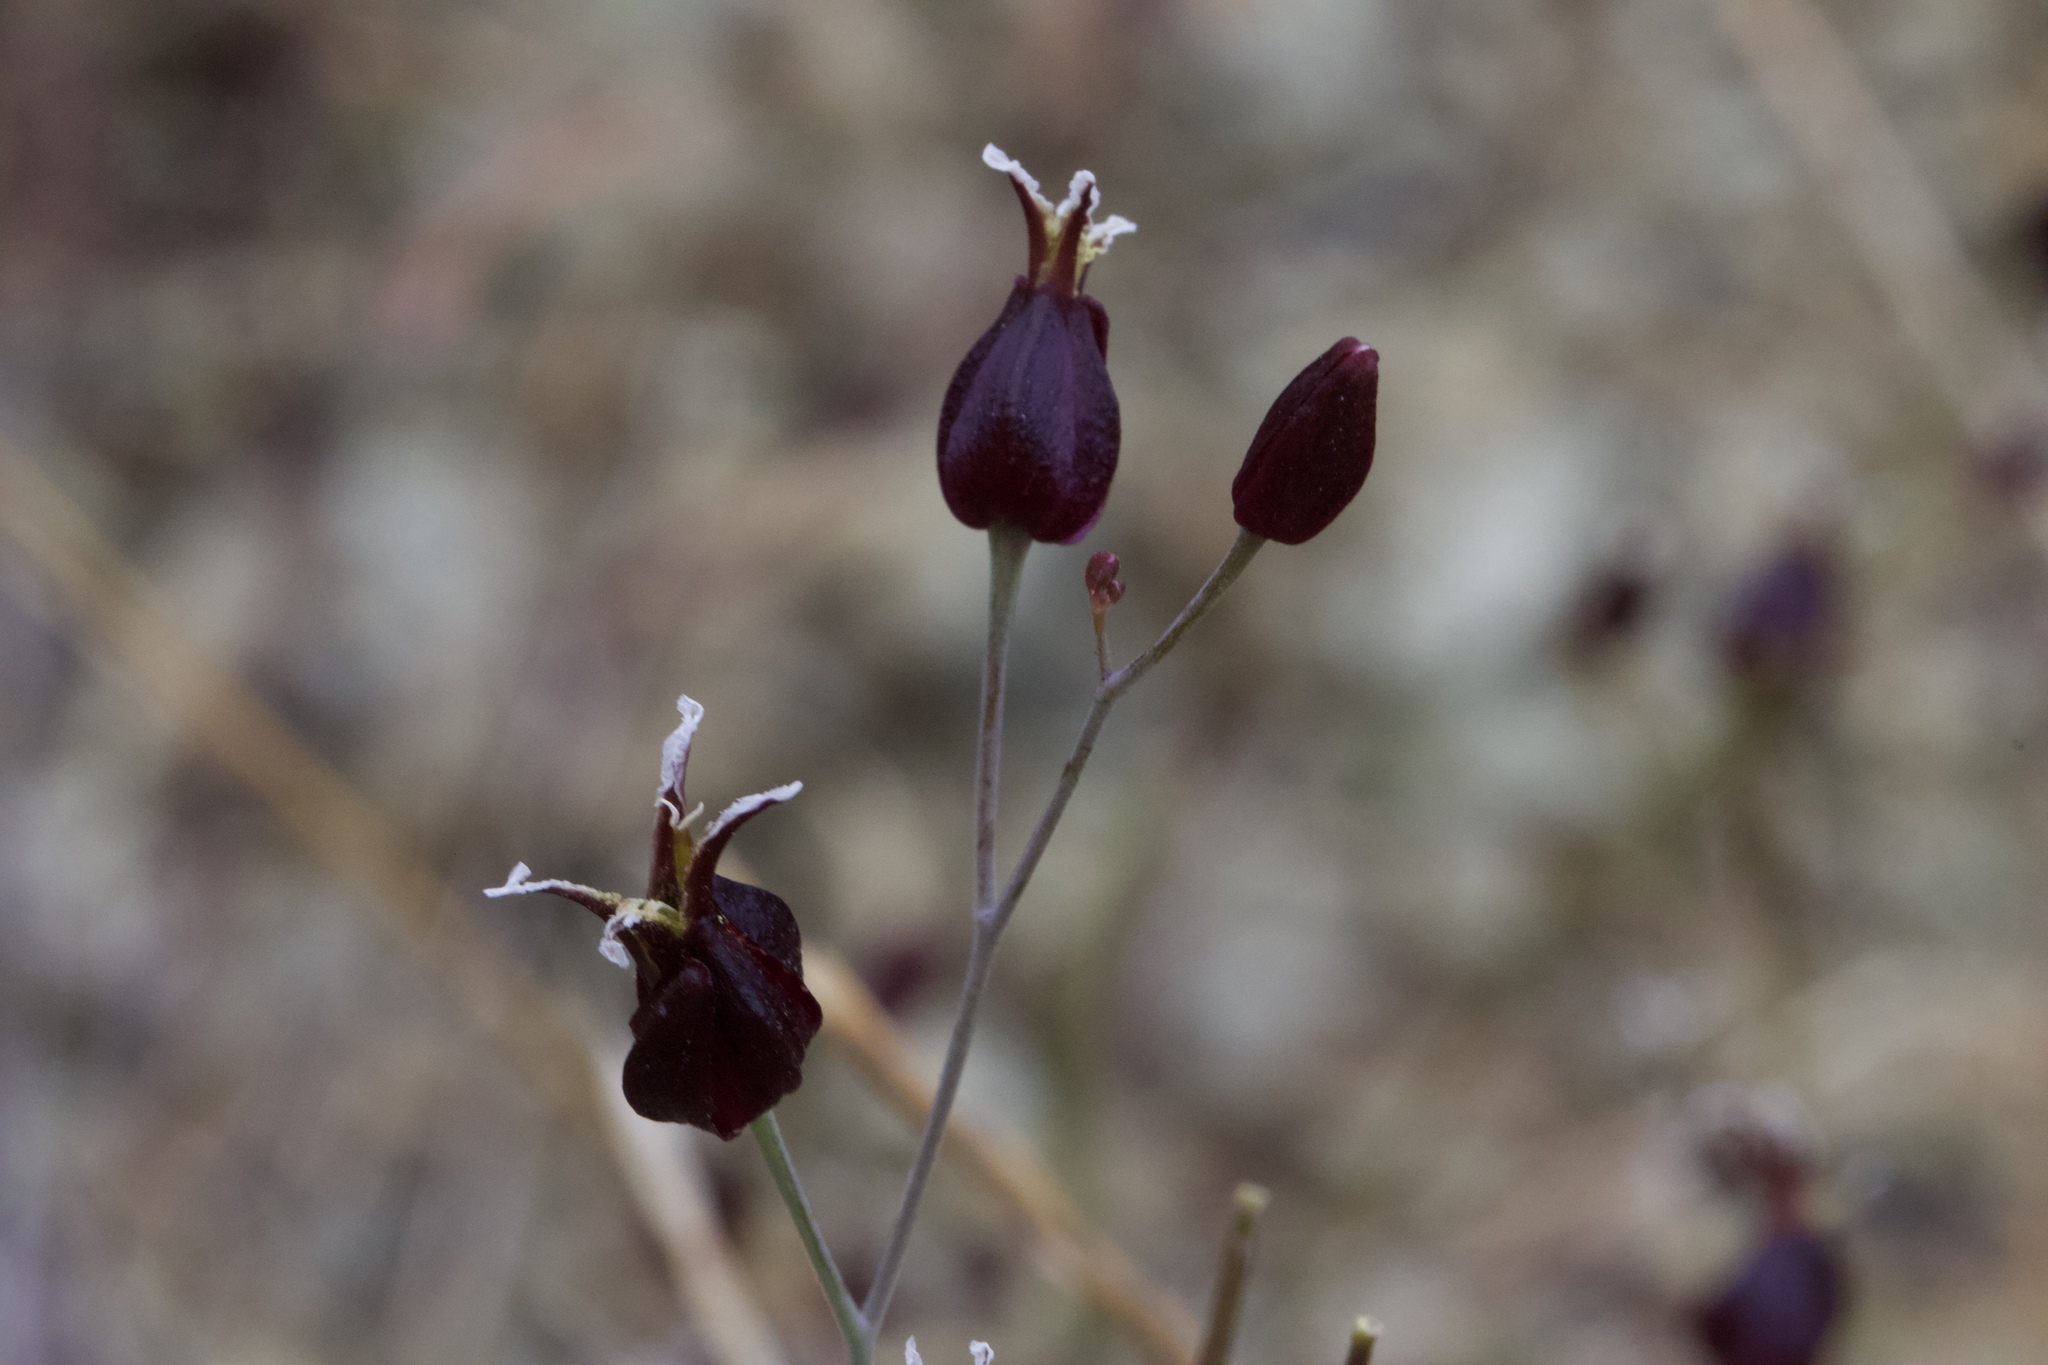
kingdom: Plantae
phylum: Tracheophyta
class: Magnoliopsida
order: Brassicales
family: Brassicaceae
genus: Streptanthus
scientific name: Streptanthus glandulosus
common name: Jewel-flower
